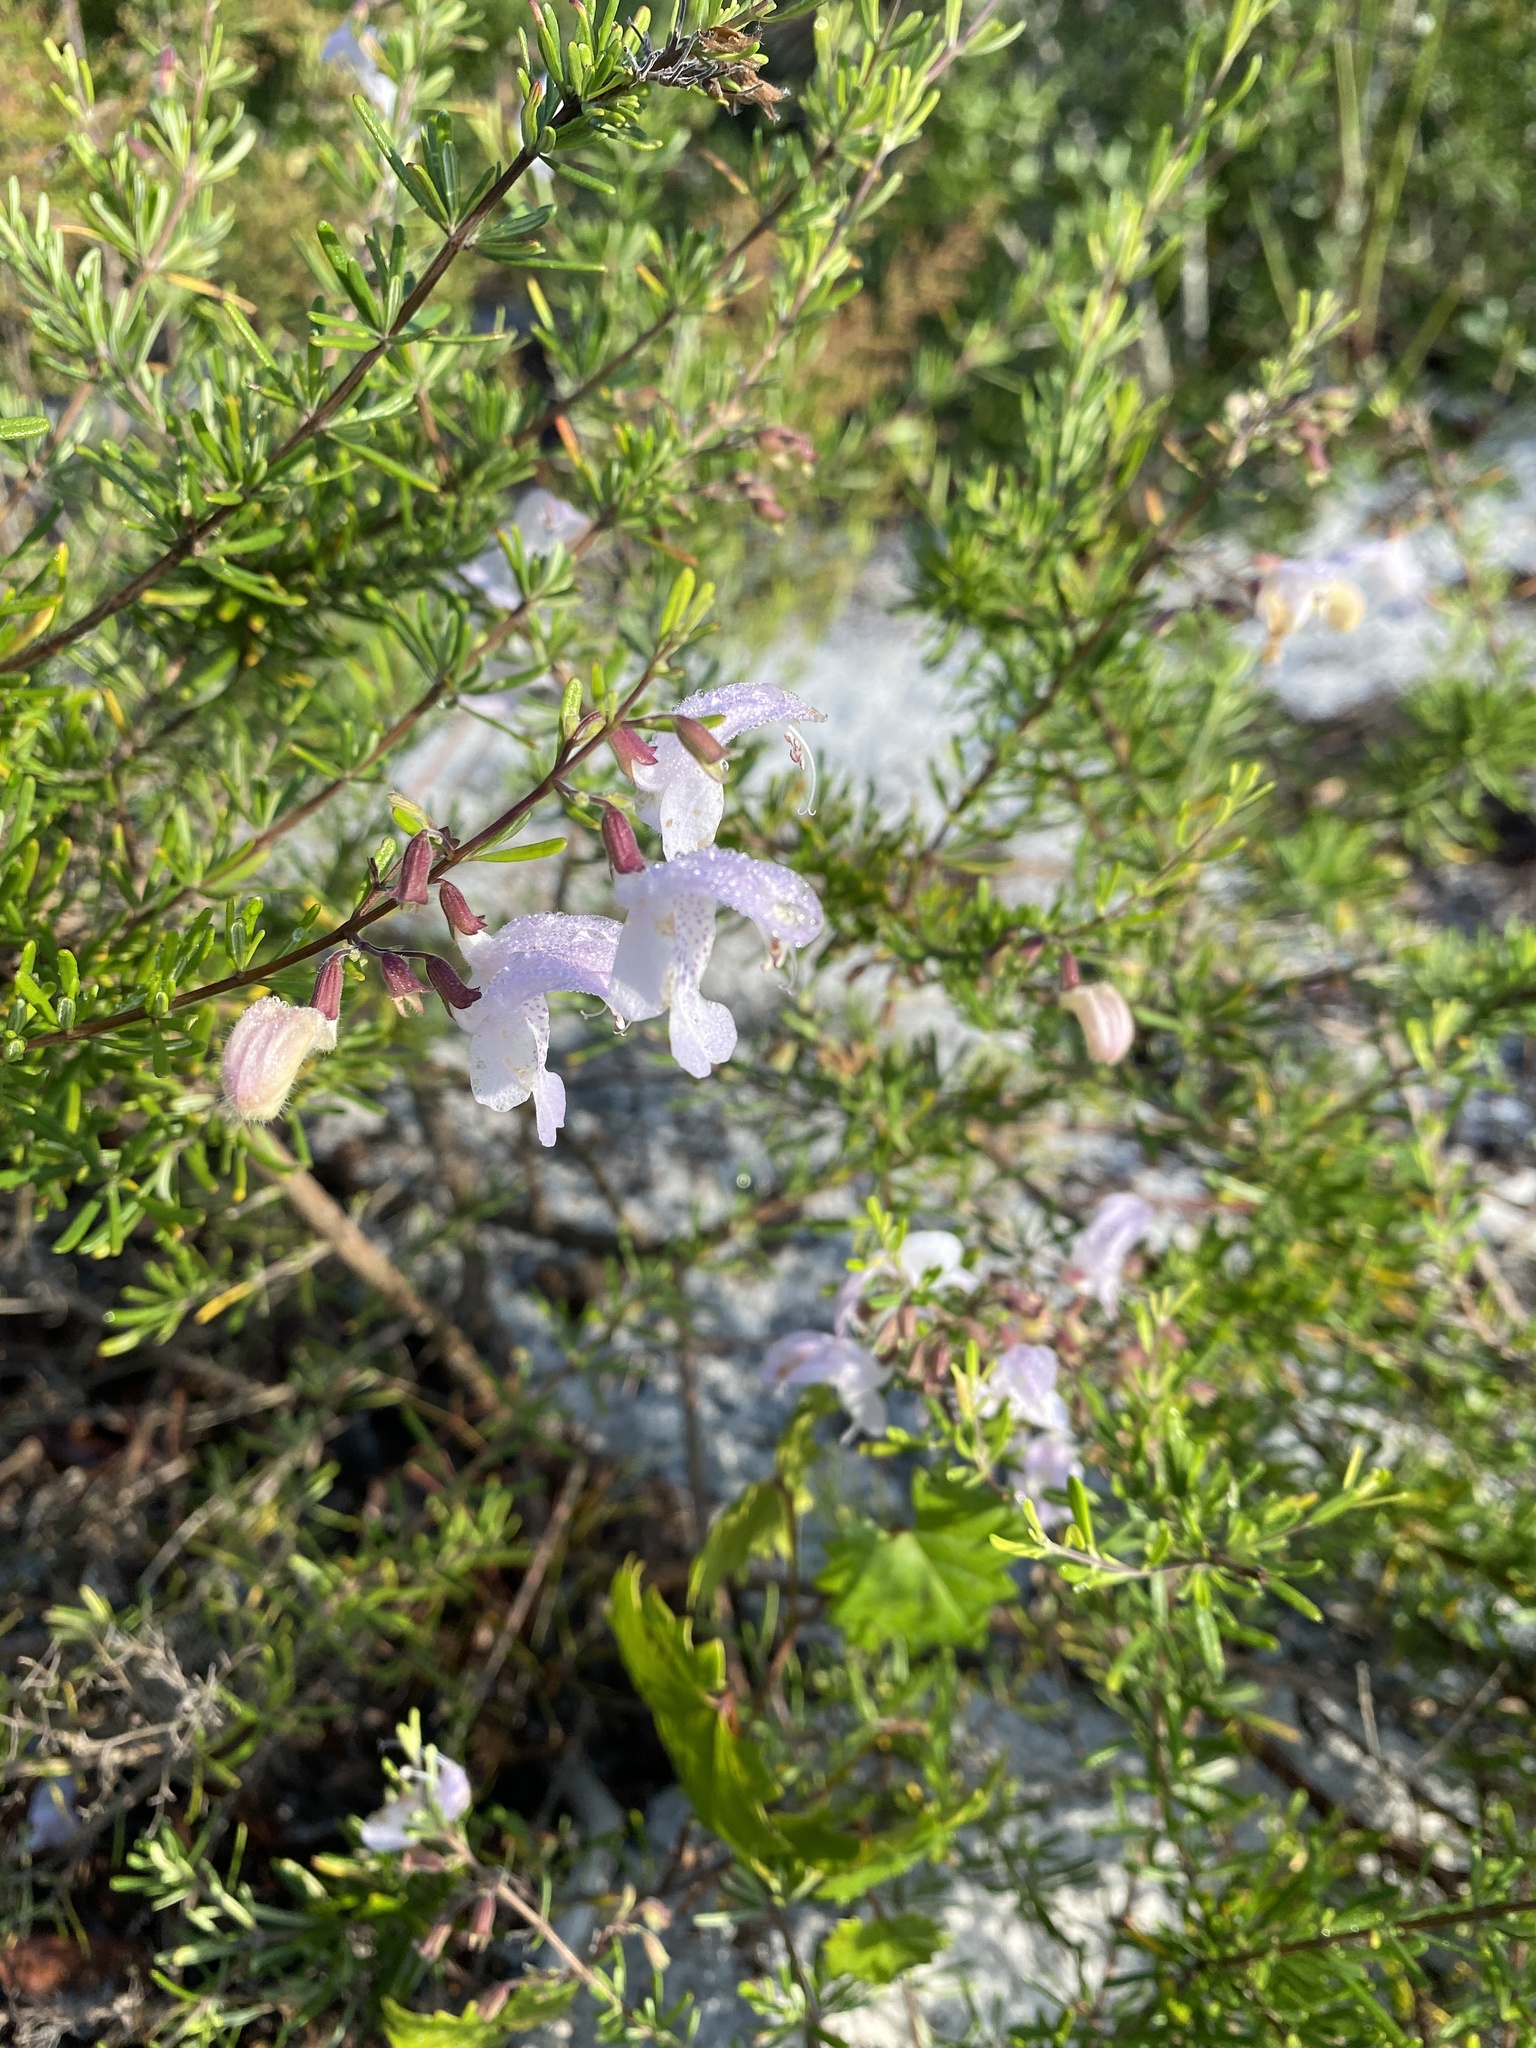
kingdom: Plantae
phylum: Tracheophyta
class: Magnoliopsida
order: Lamiales
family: Lamiaceae
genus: Conradina
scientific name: Conradina grandiflora
